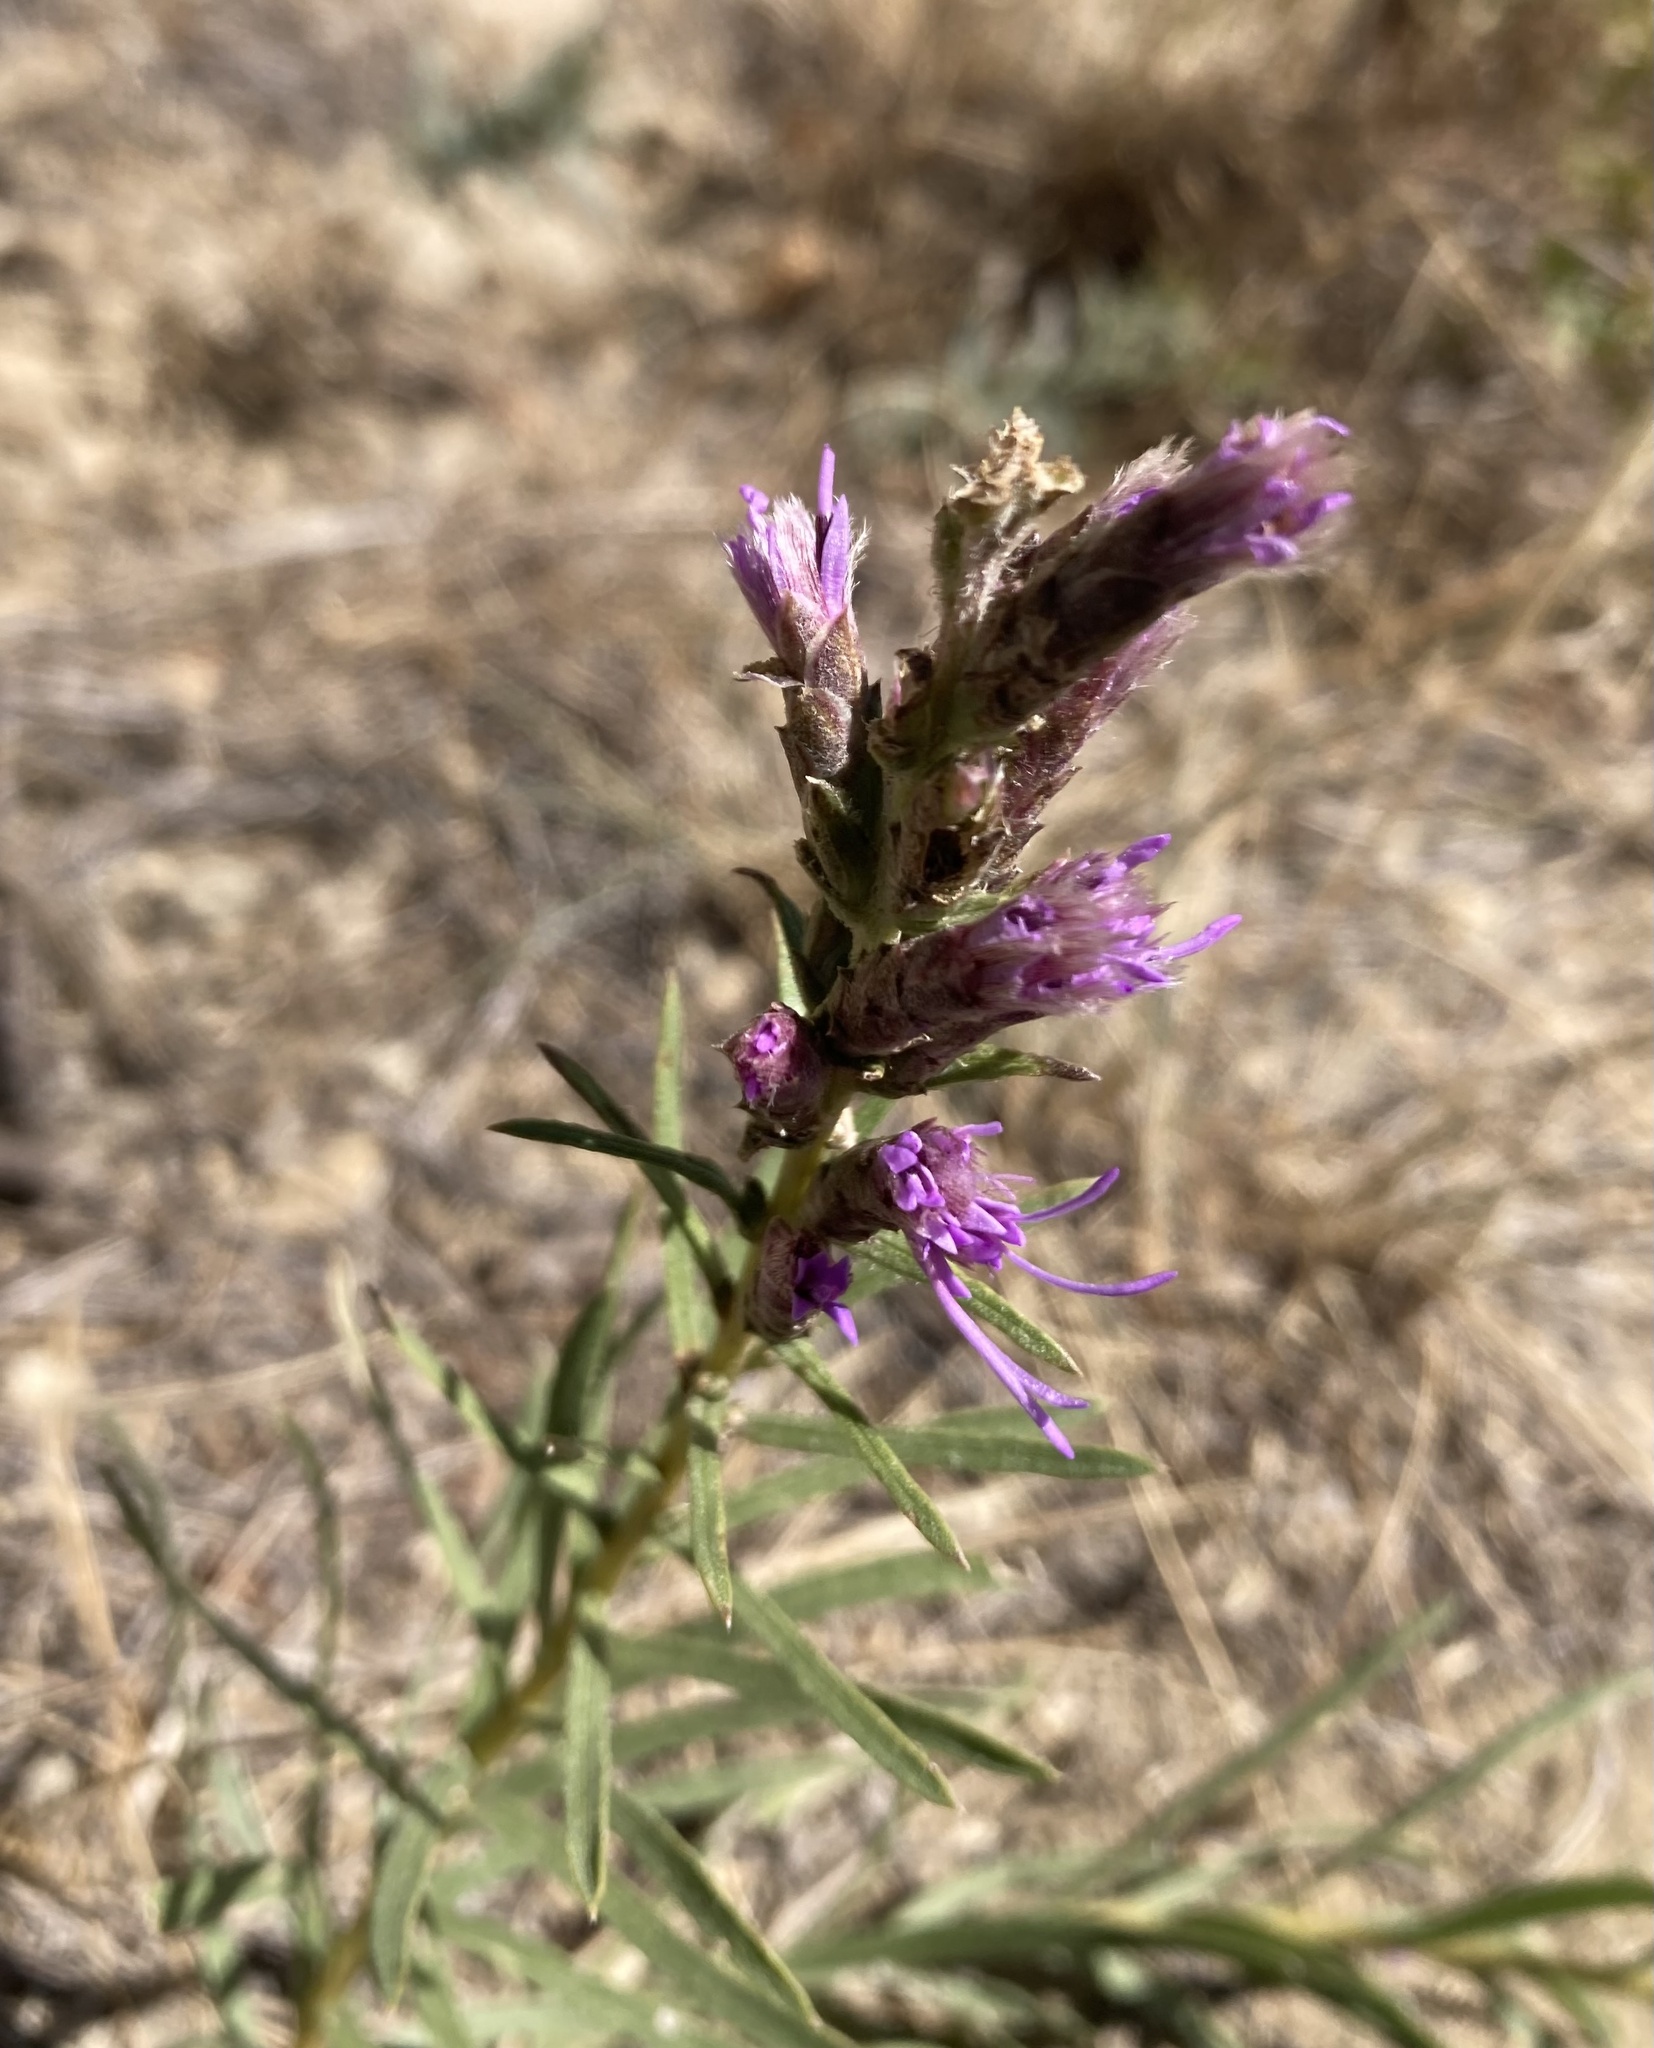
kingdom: Plantae
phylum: Tracheophyta
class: Magnoliopsida
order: Asterales
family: Asteraceae
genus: Liatris
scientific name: Liatris punctata
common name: Dotted gayfeather
